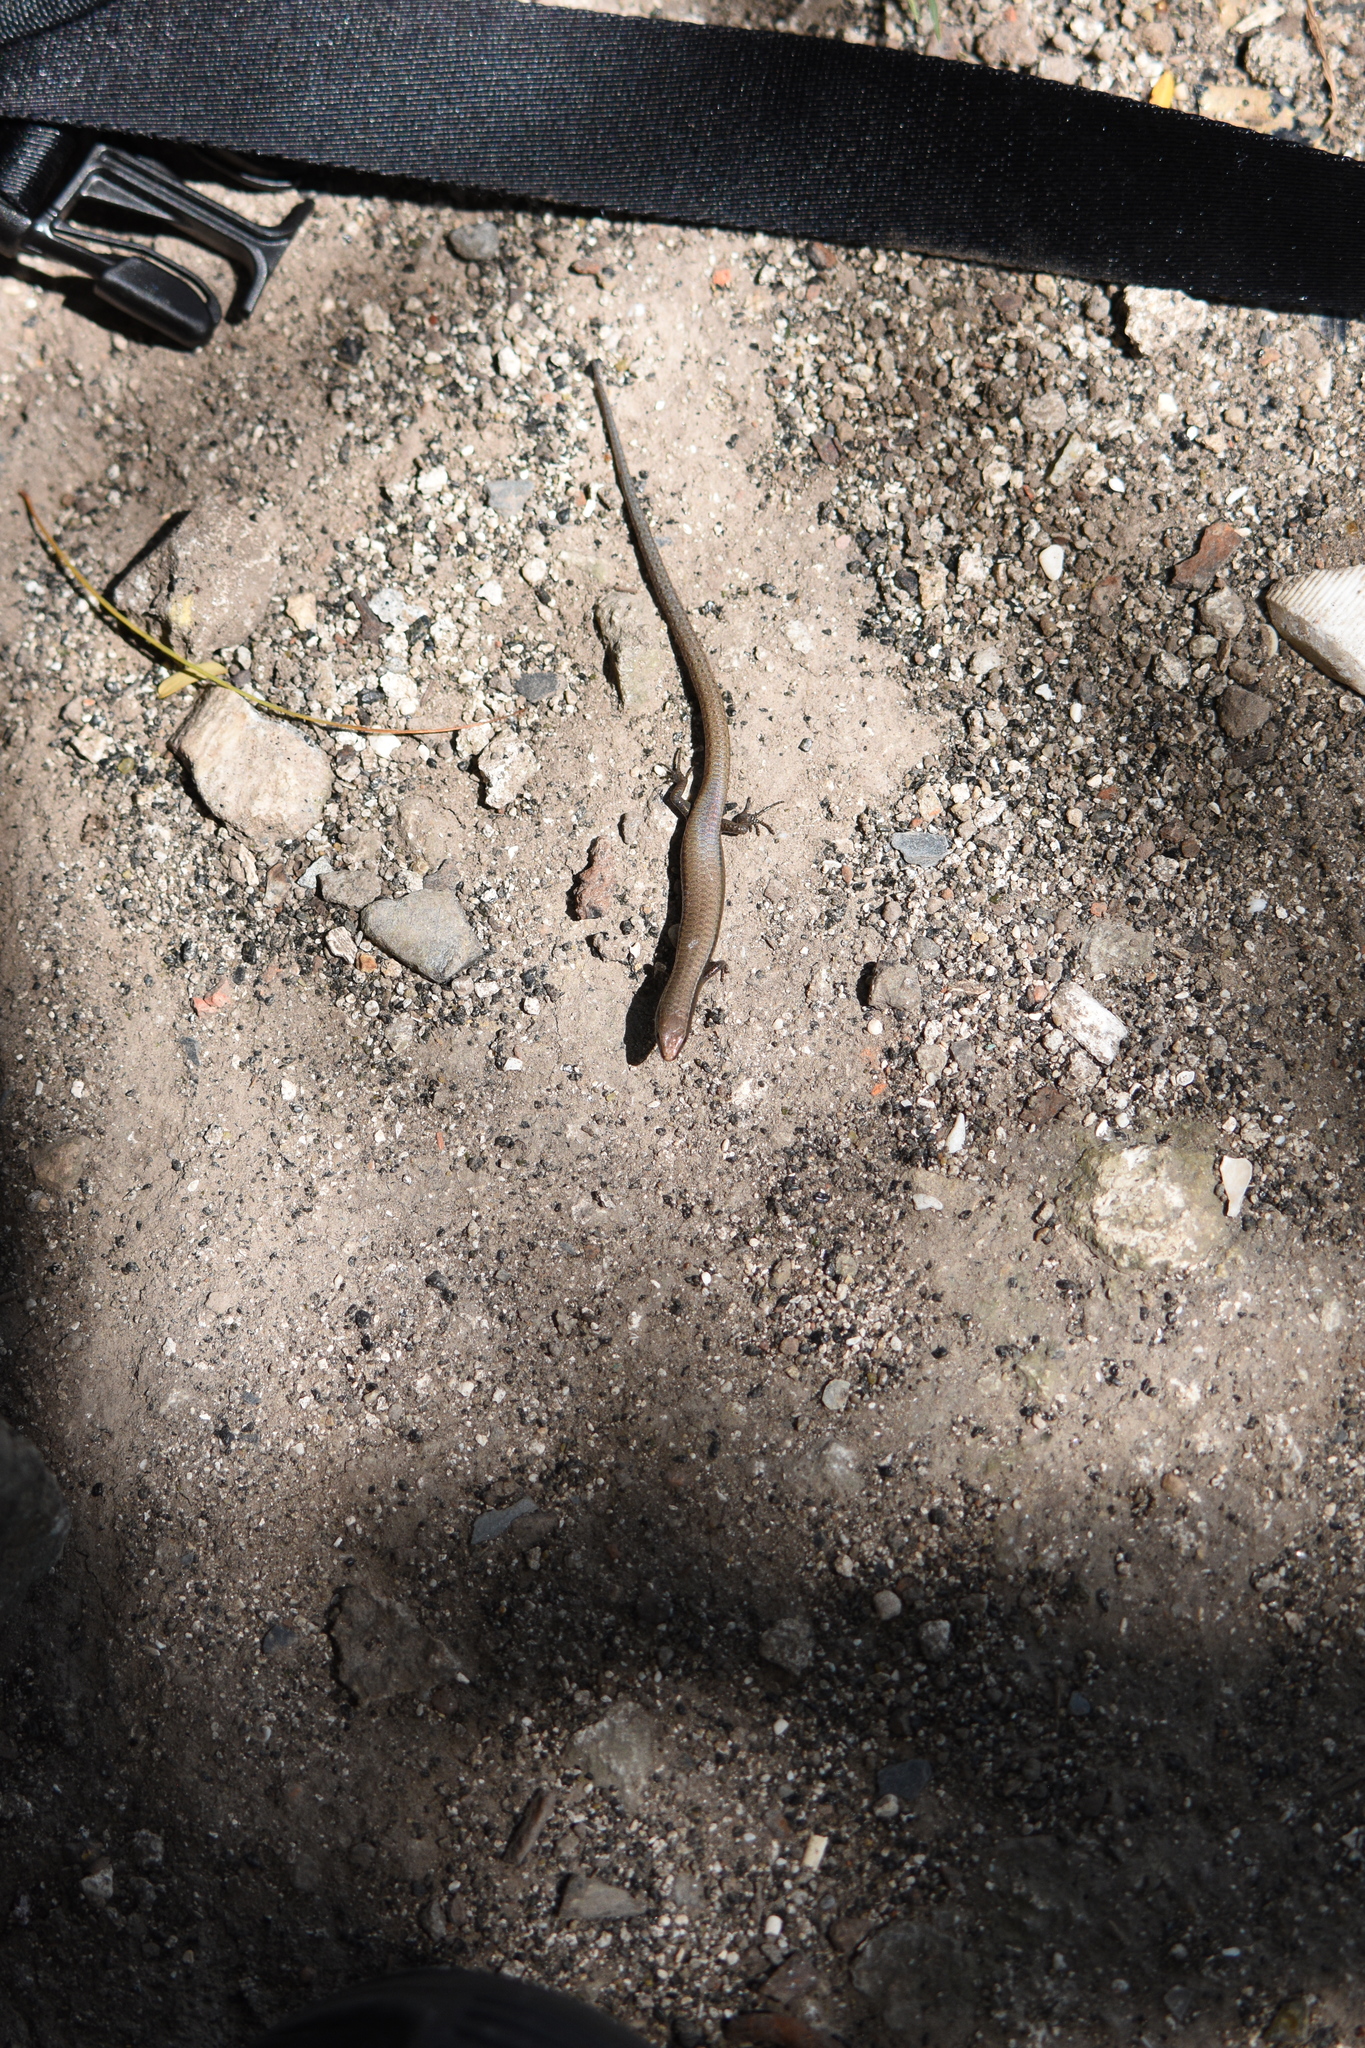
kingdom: Animalia
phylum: Chordata
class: Squamata
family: Gymnophthalmidae
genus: Gymnophthalmus
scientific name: Gymnophthalmus underwoodi
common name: Underwood's spectacled tegu
